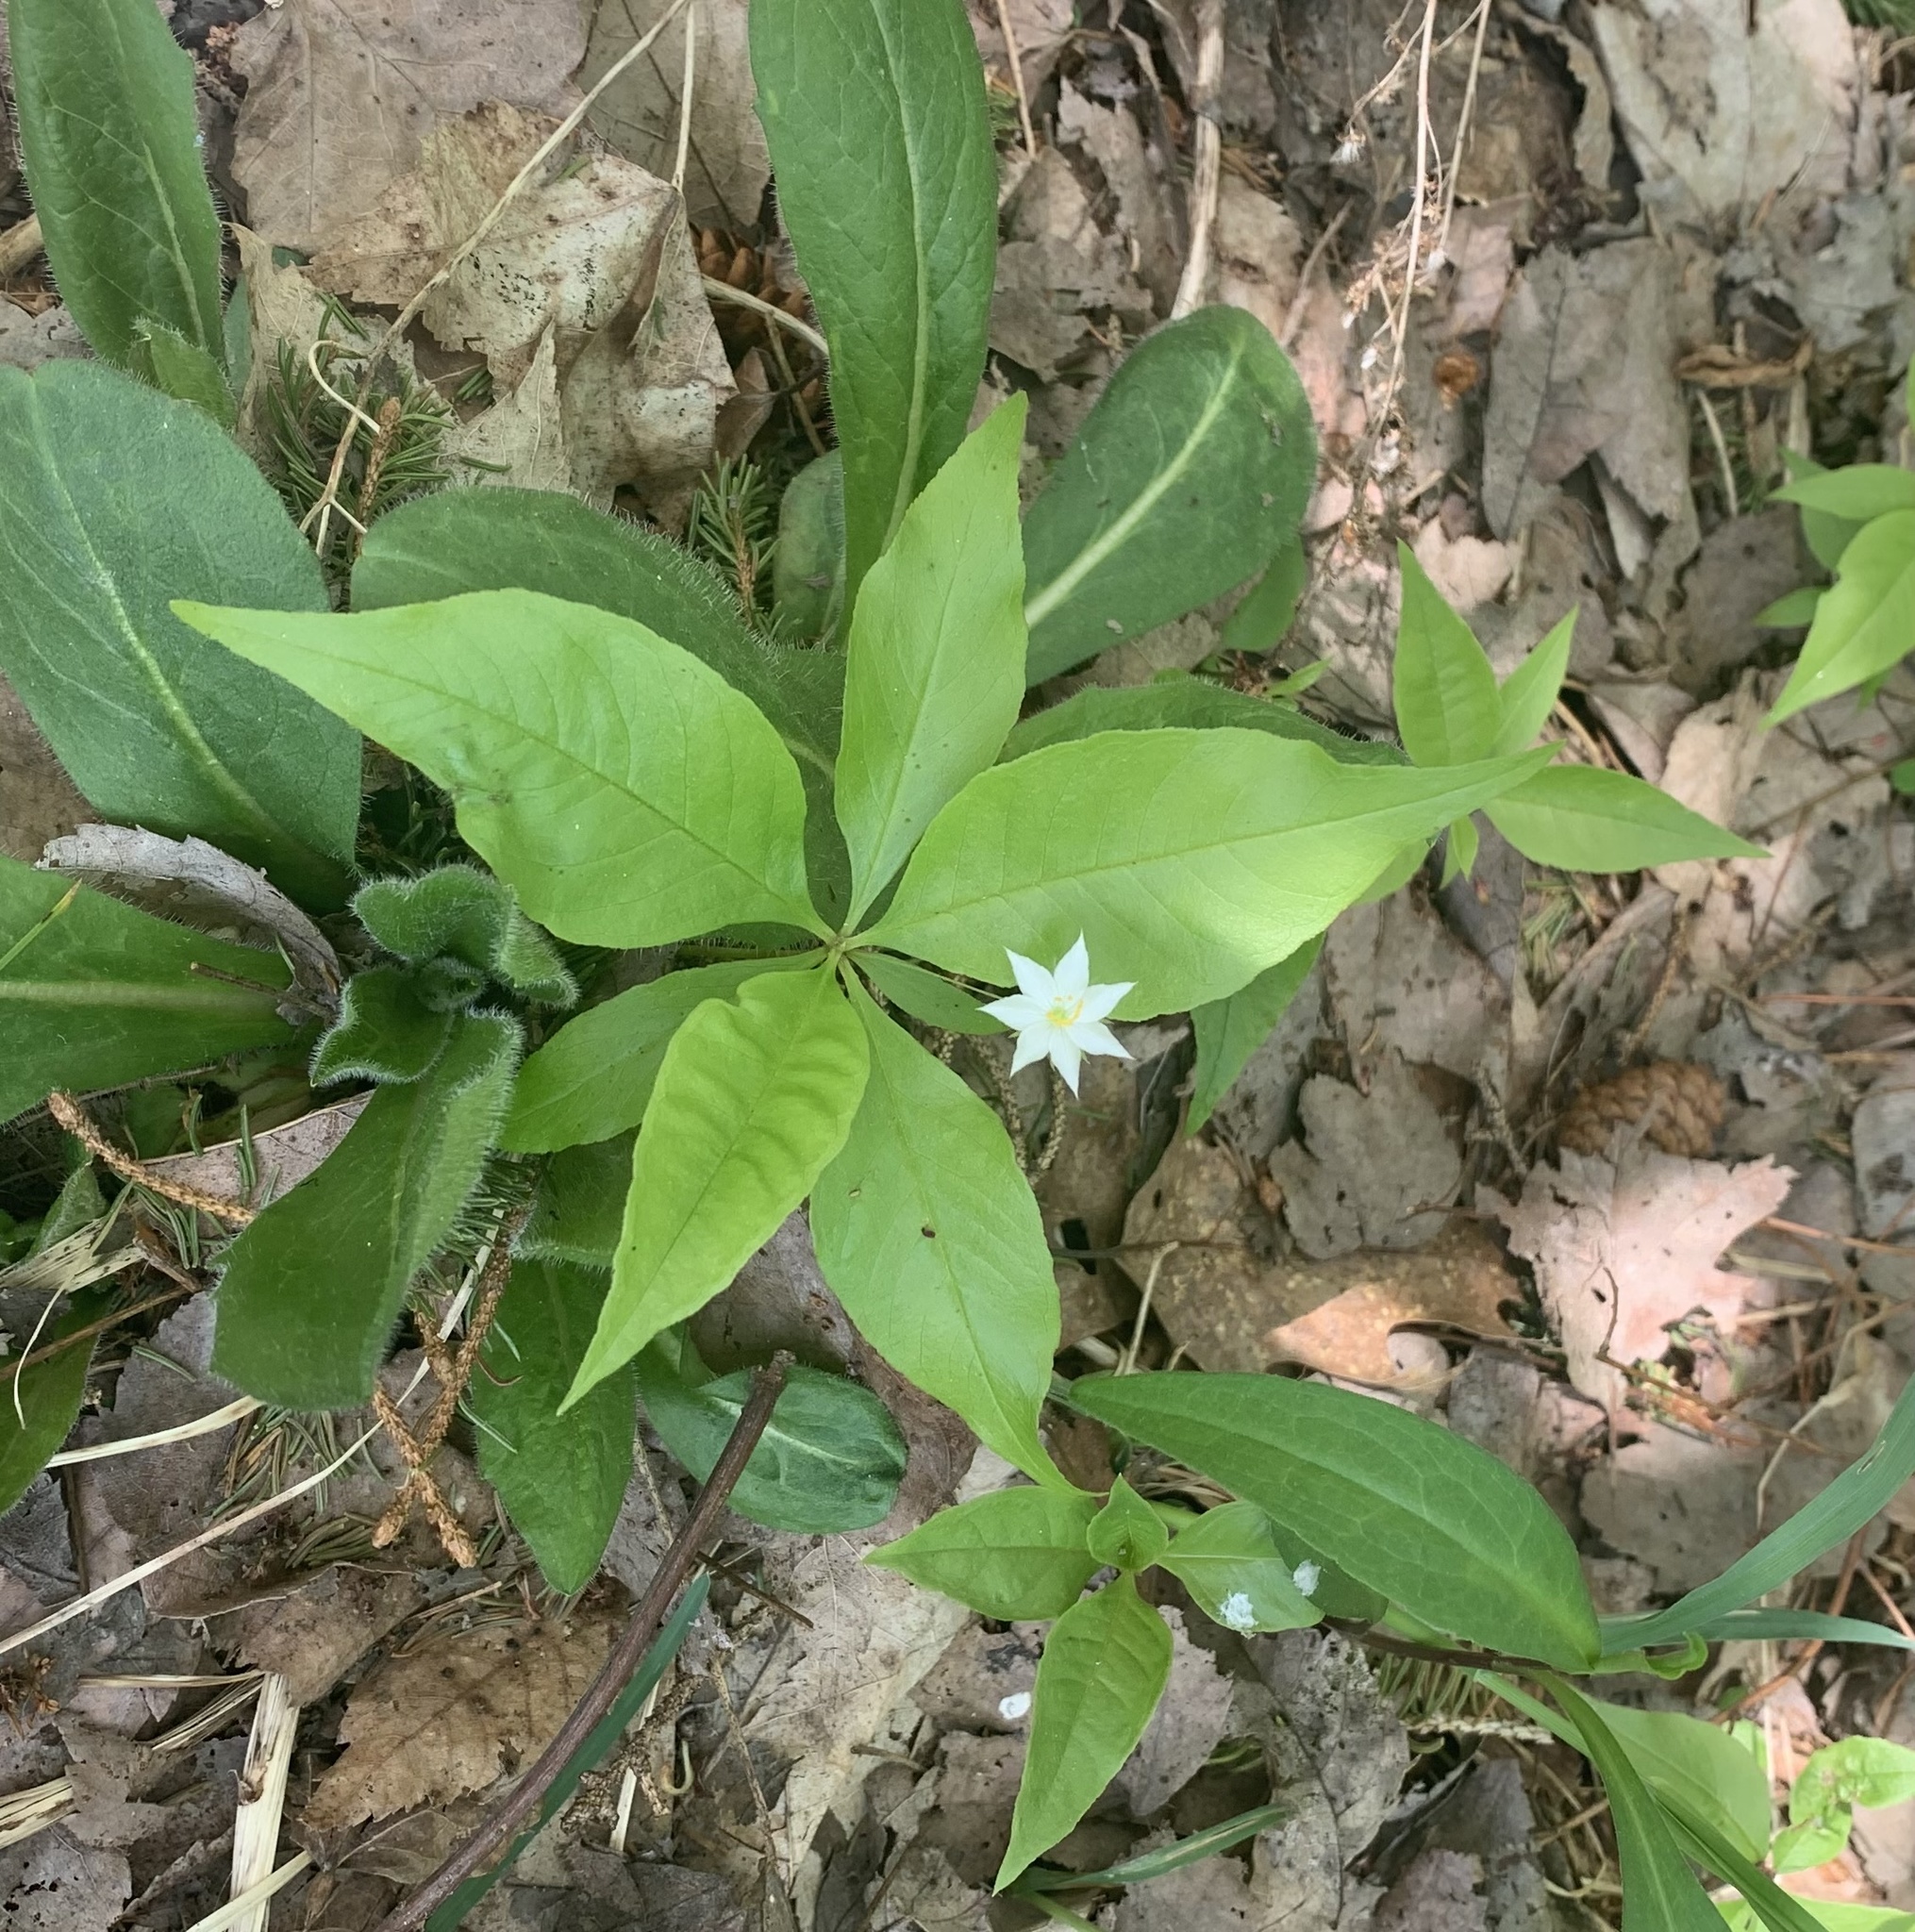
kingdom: Plantae
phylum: Tracheophyta
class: Magnoliopsida
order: Ericales
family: Primulaceae
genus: Lysimachia
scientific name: Lysimachia borealis
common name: American starflower
